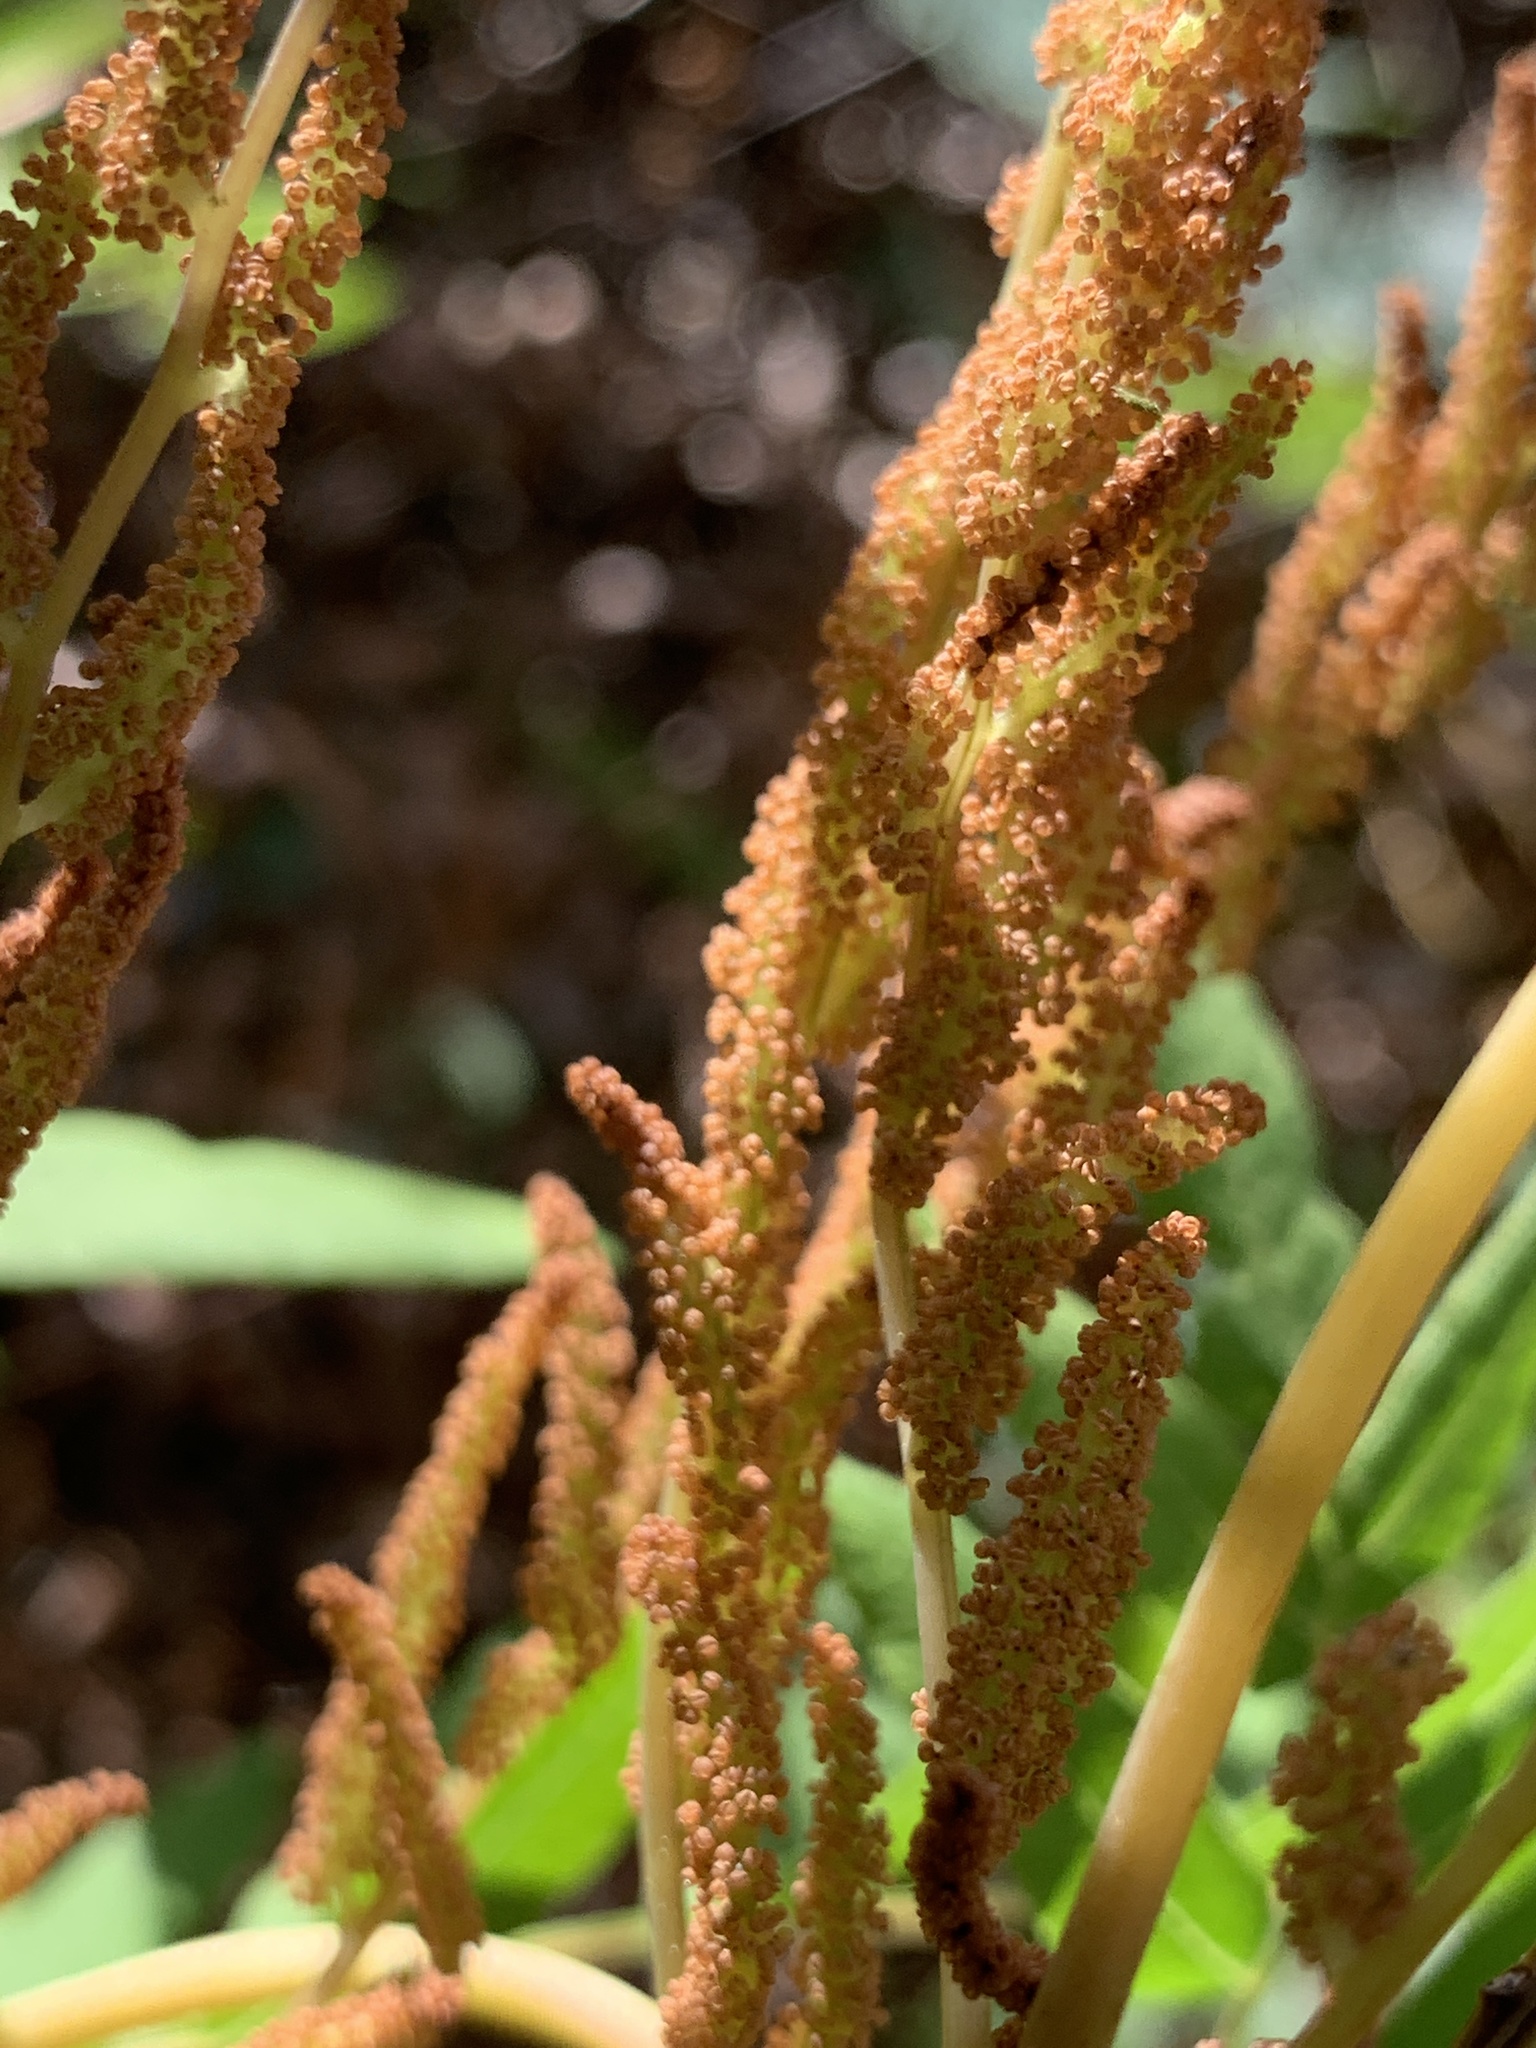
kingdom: Plantae
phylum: Tracheophyta
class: Polypodiopsida
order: Osmundales
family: Osmundaceae
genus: Osmunda
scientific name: Osmunda spectabilis
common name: American royal fern
